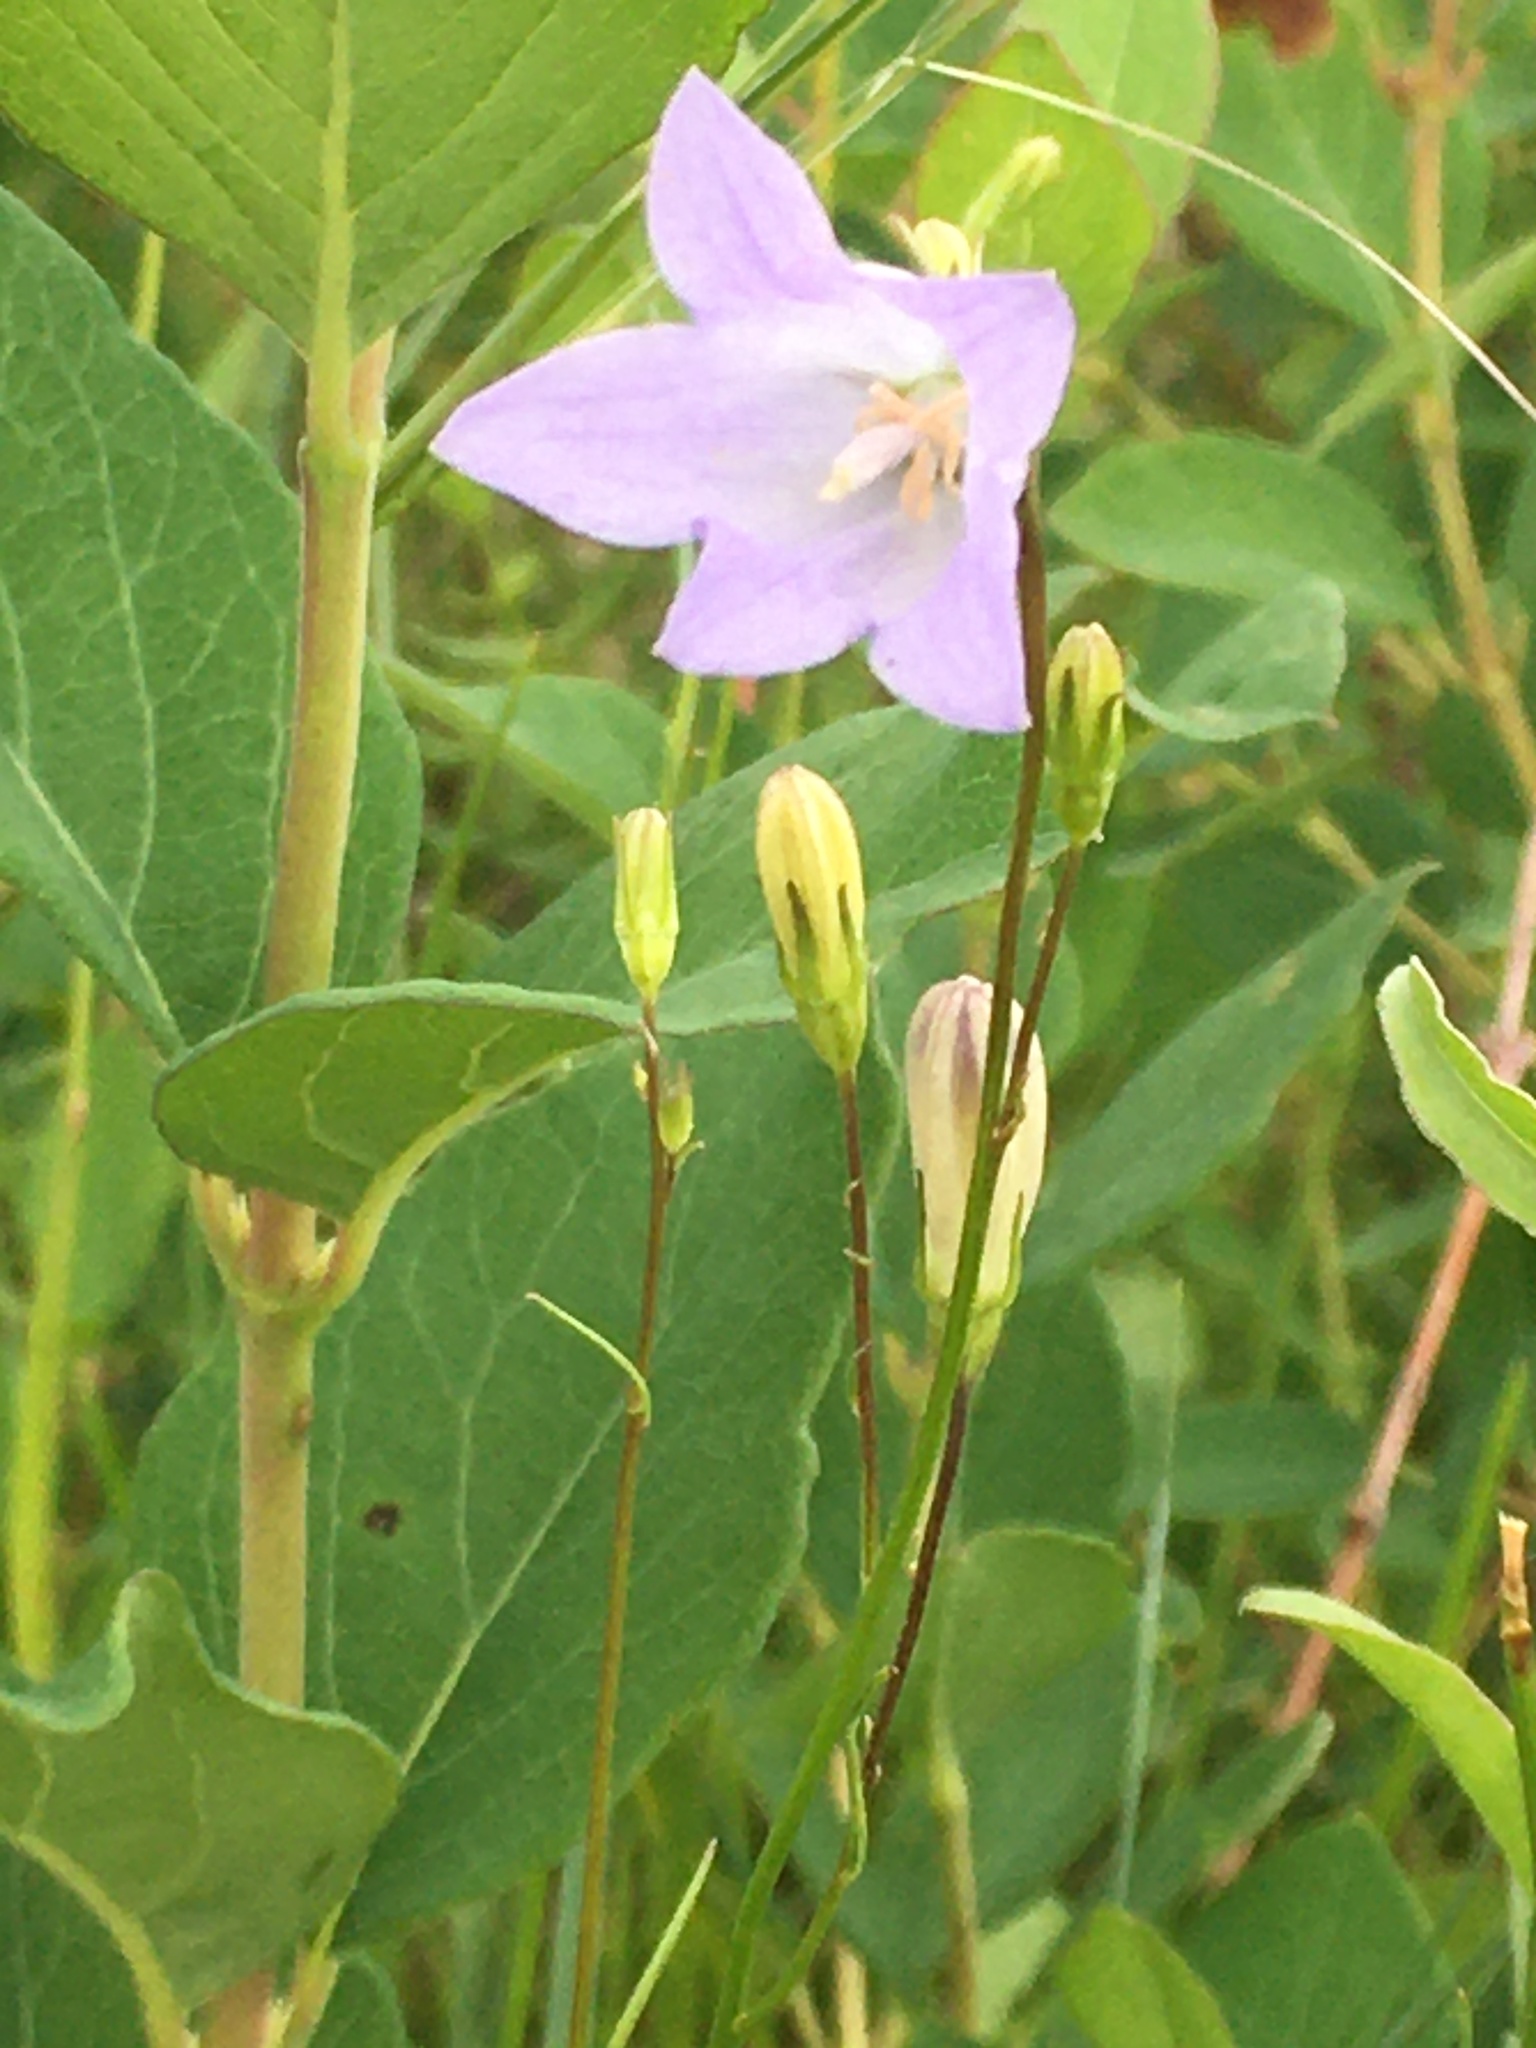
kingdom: Plantae
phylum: Tracheophyta
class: Magnoliopsida
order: Asterales
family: Campanulaceae
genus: Campanula
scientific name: Campanula alaskana
